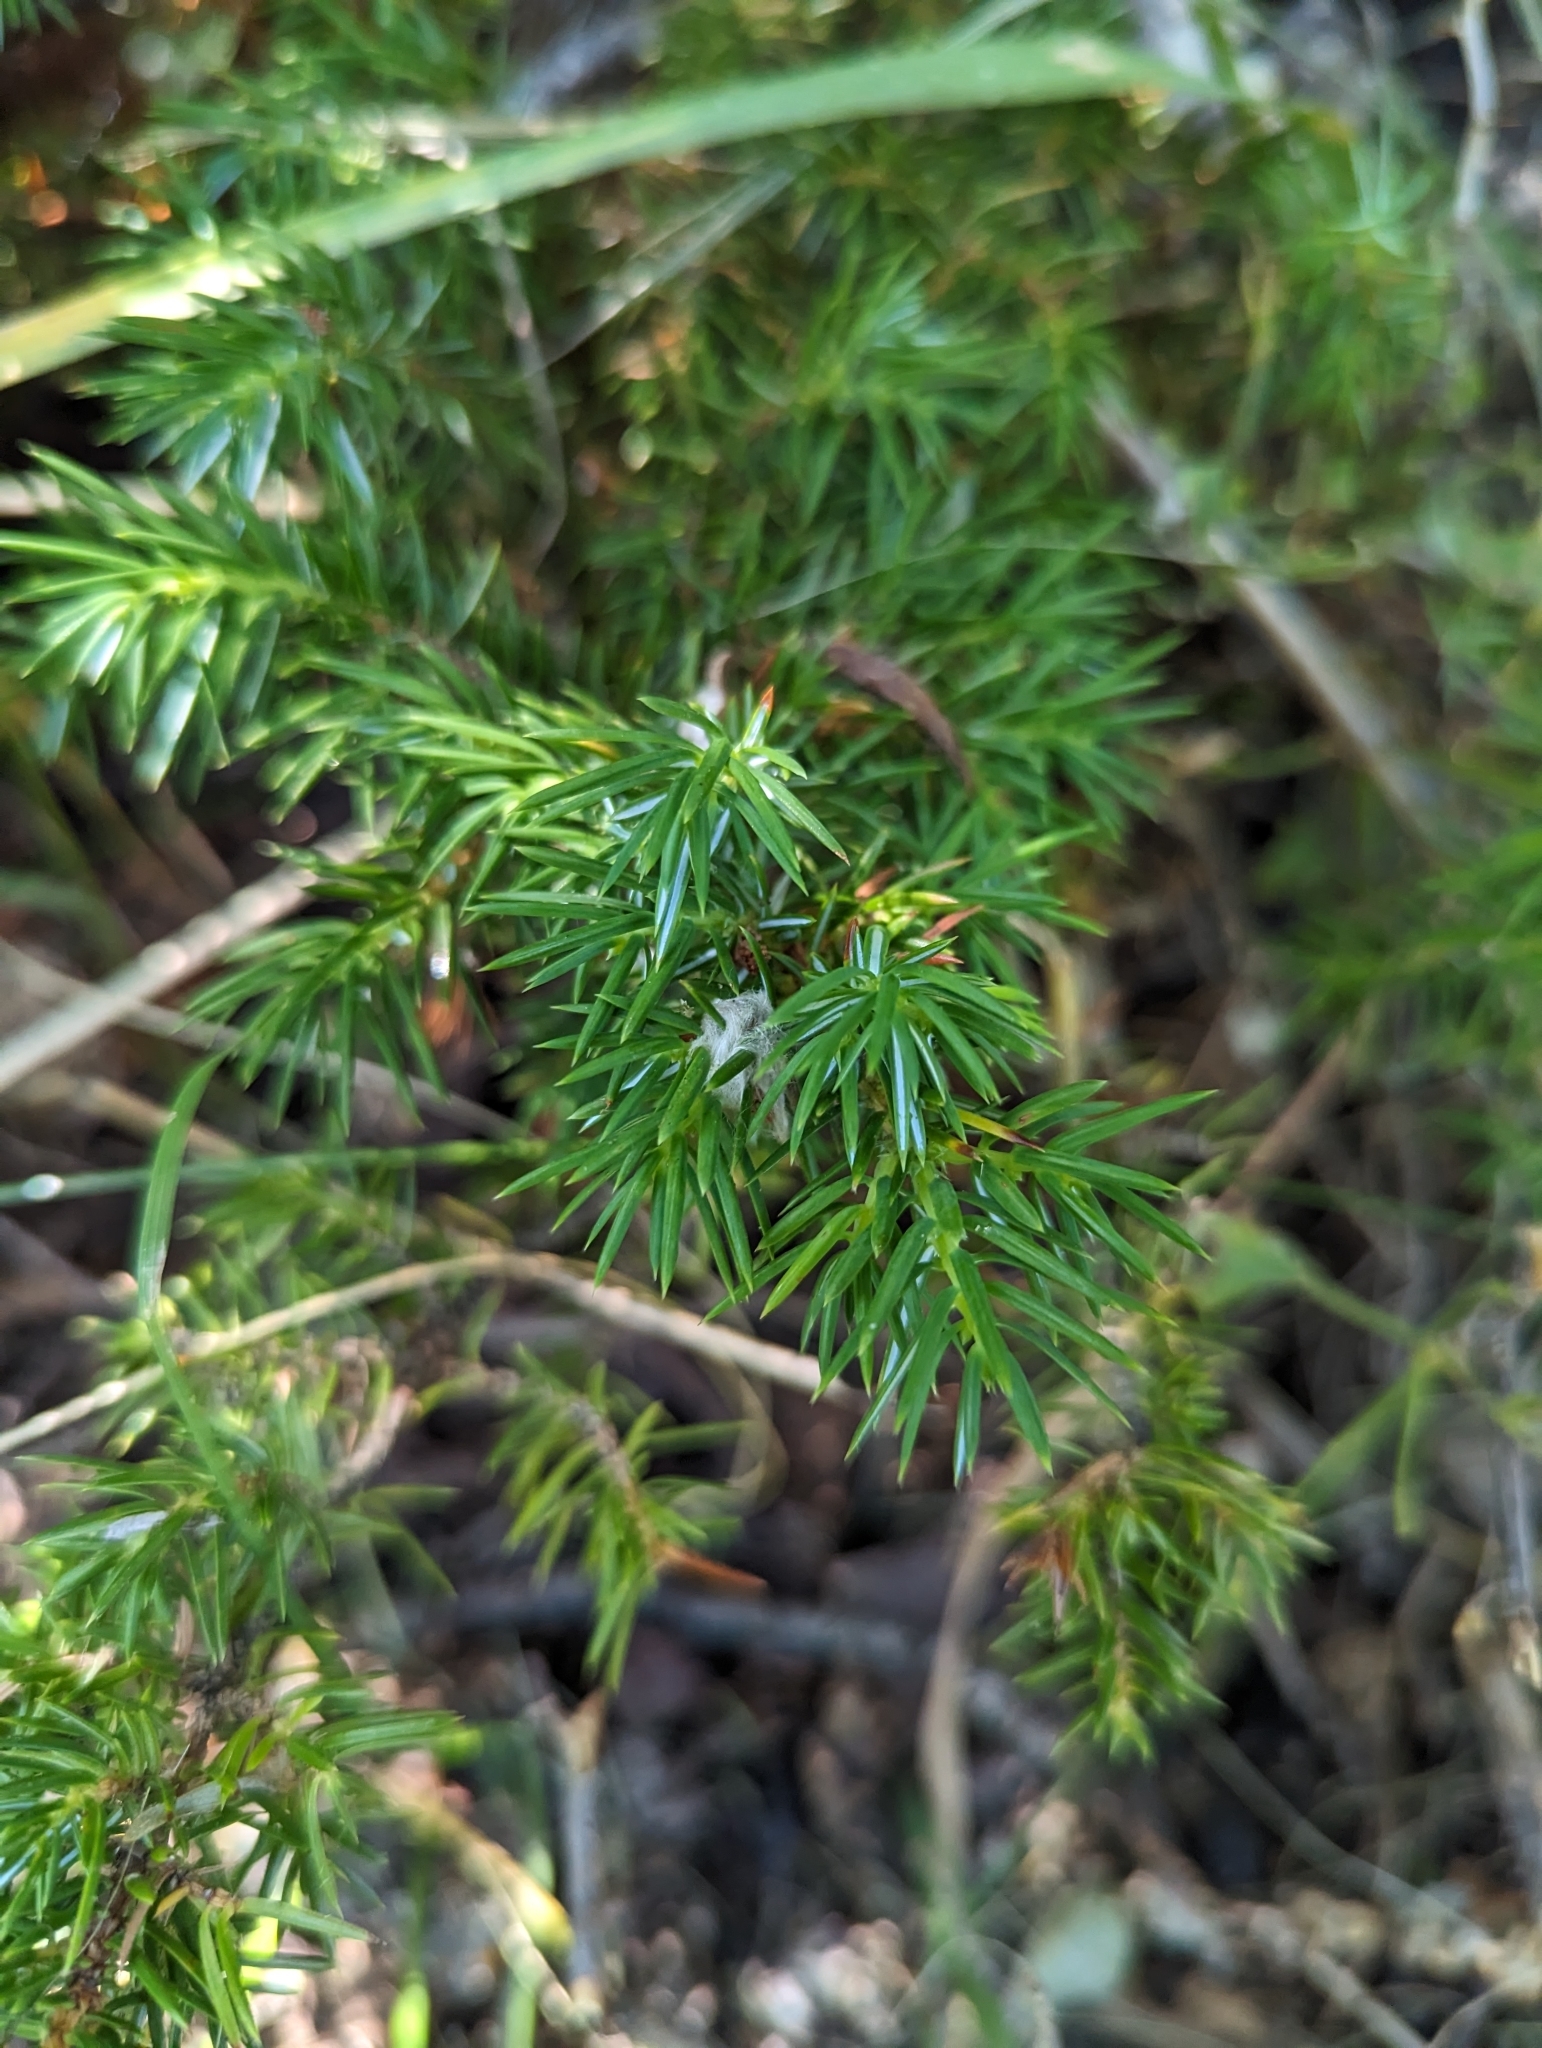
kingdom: Plantae
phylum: Tracheophyta
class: Pinopsida
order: Pinales
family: Cupressaceae
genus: Juniperus
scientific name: Juniperus communis
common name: Common juniper
